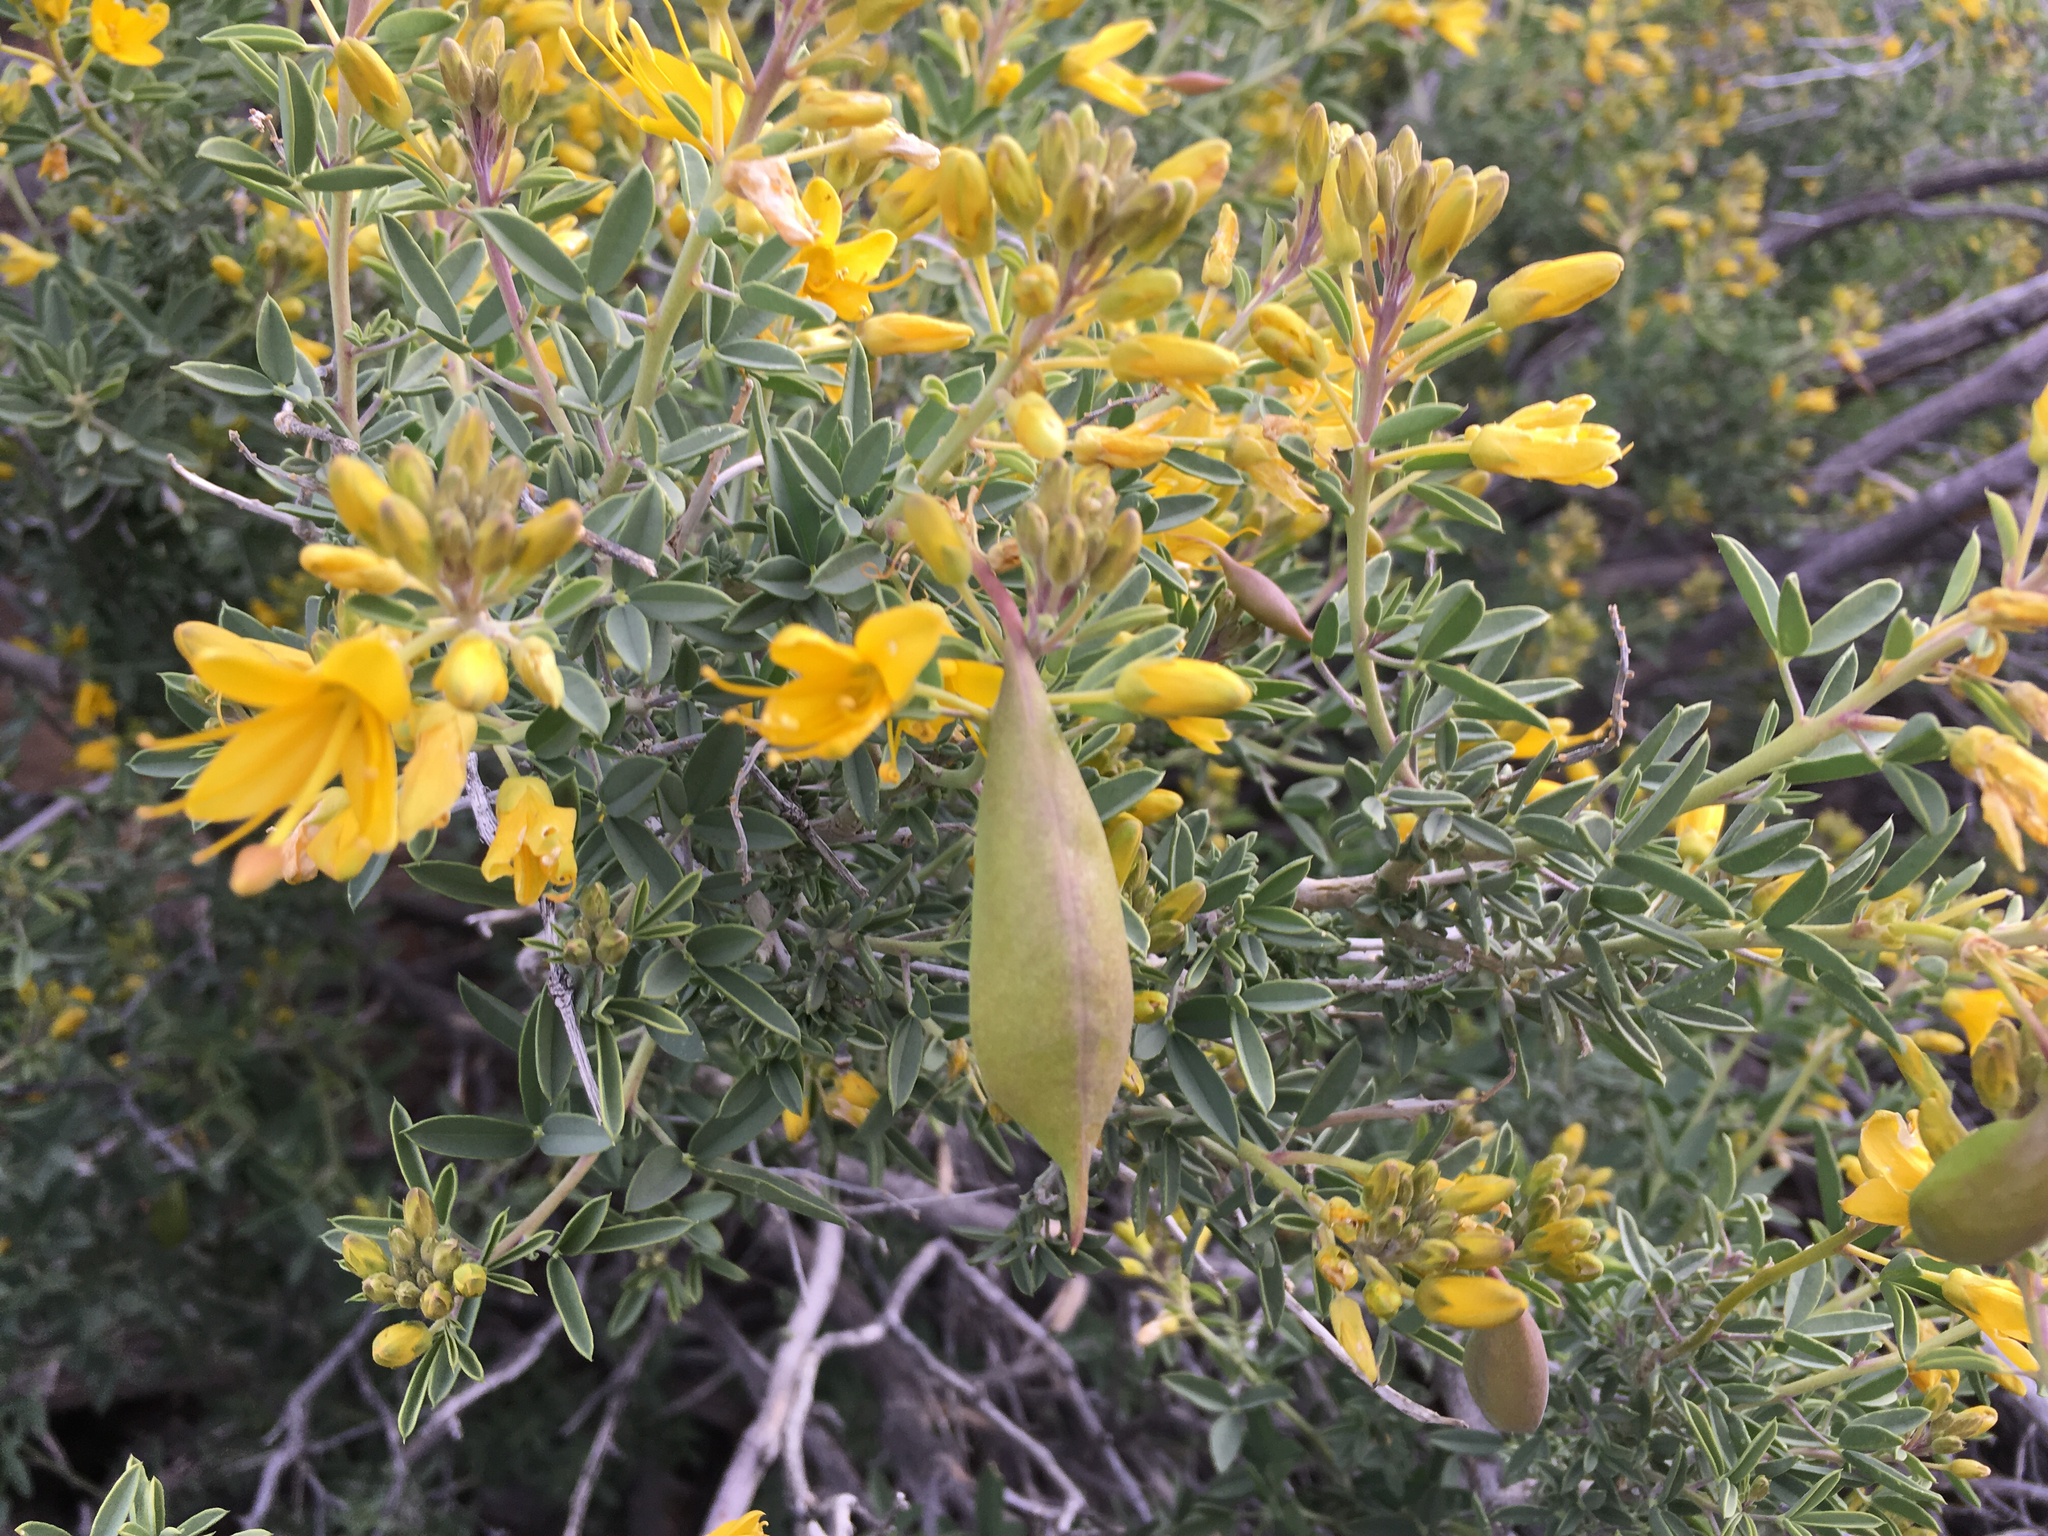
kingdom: Plantae
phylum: Tracheophyta
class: Magnoliopsida
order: Brassicales
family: Cleomaceae
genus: Cleomella
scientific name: Cleomella arborea
